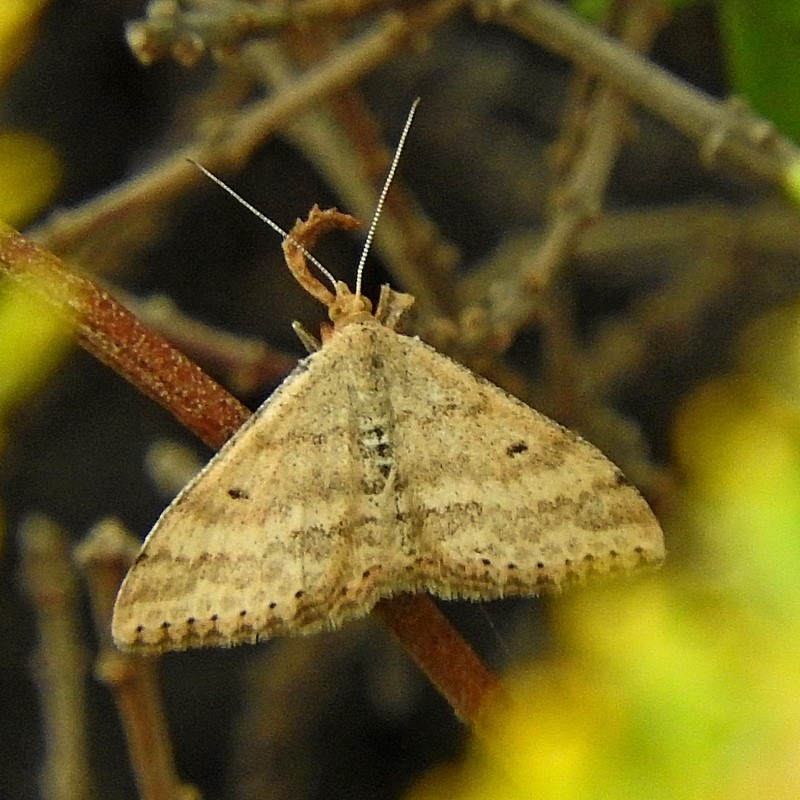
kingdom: Animalia
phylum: Arthropoda
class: Insecta
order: Lepidoptera
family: Geometridae
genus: Scopula
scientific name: Scopula rubraria
